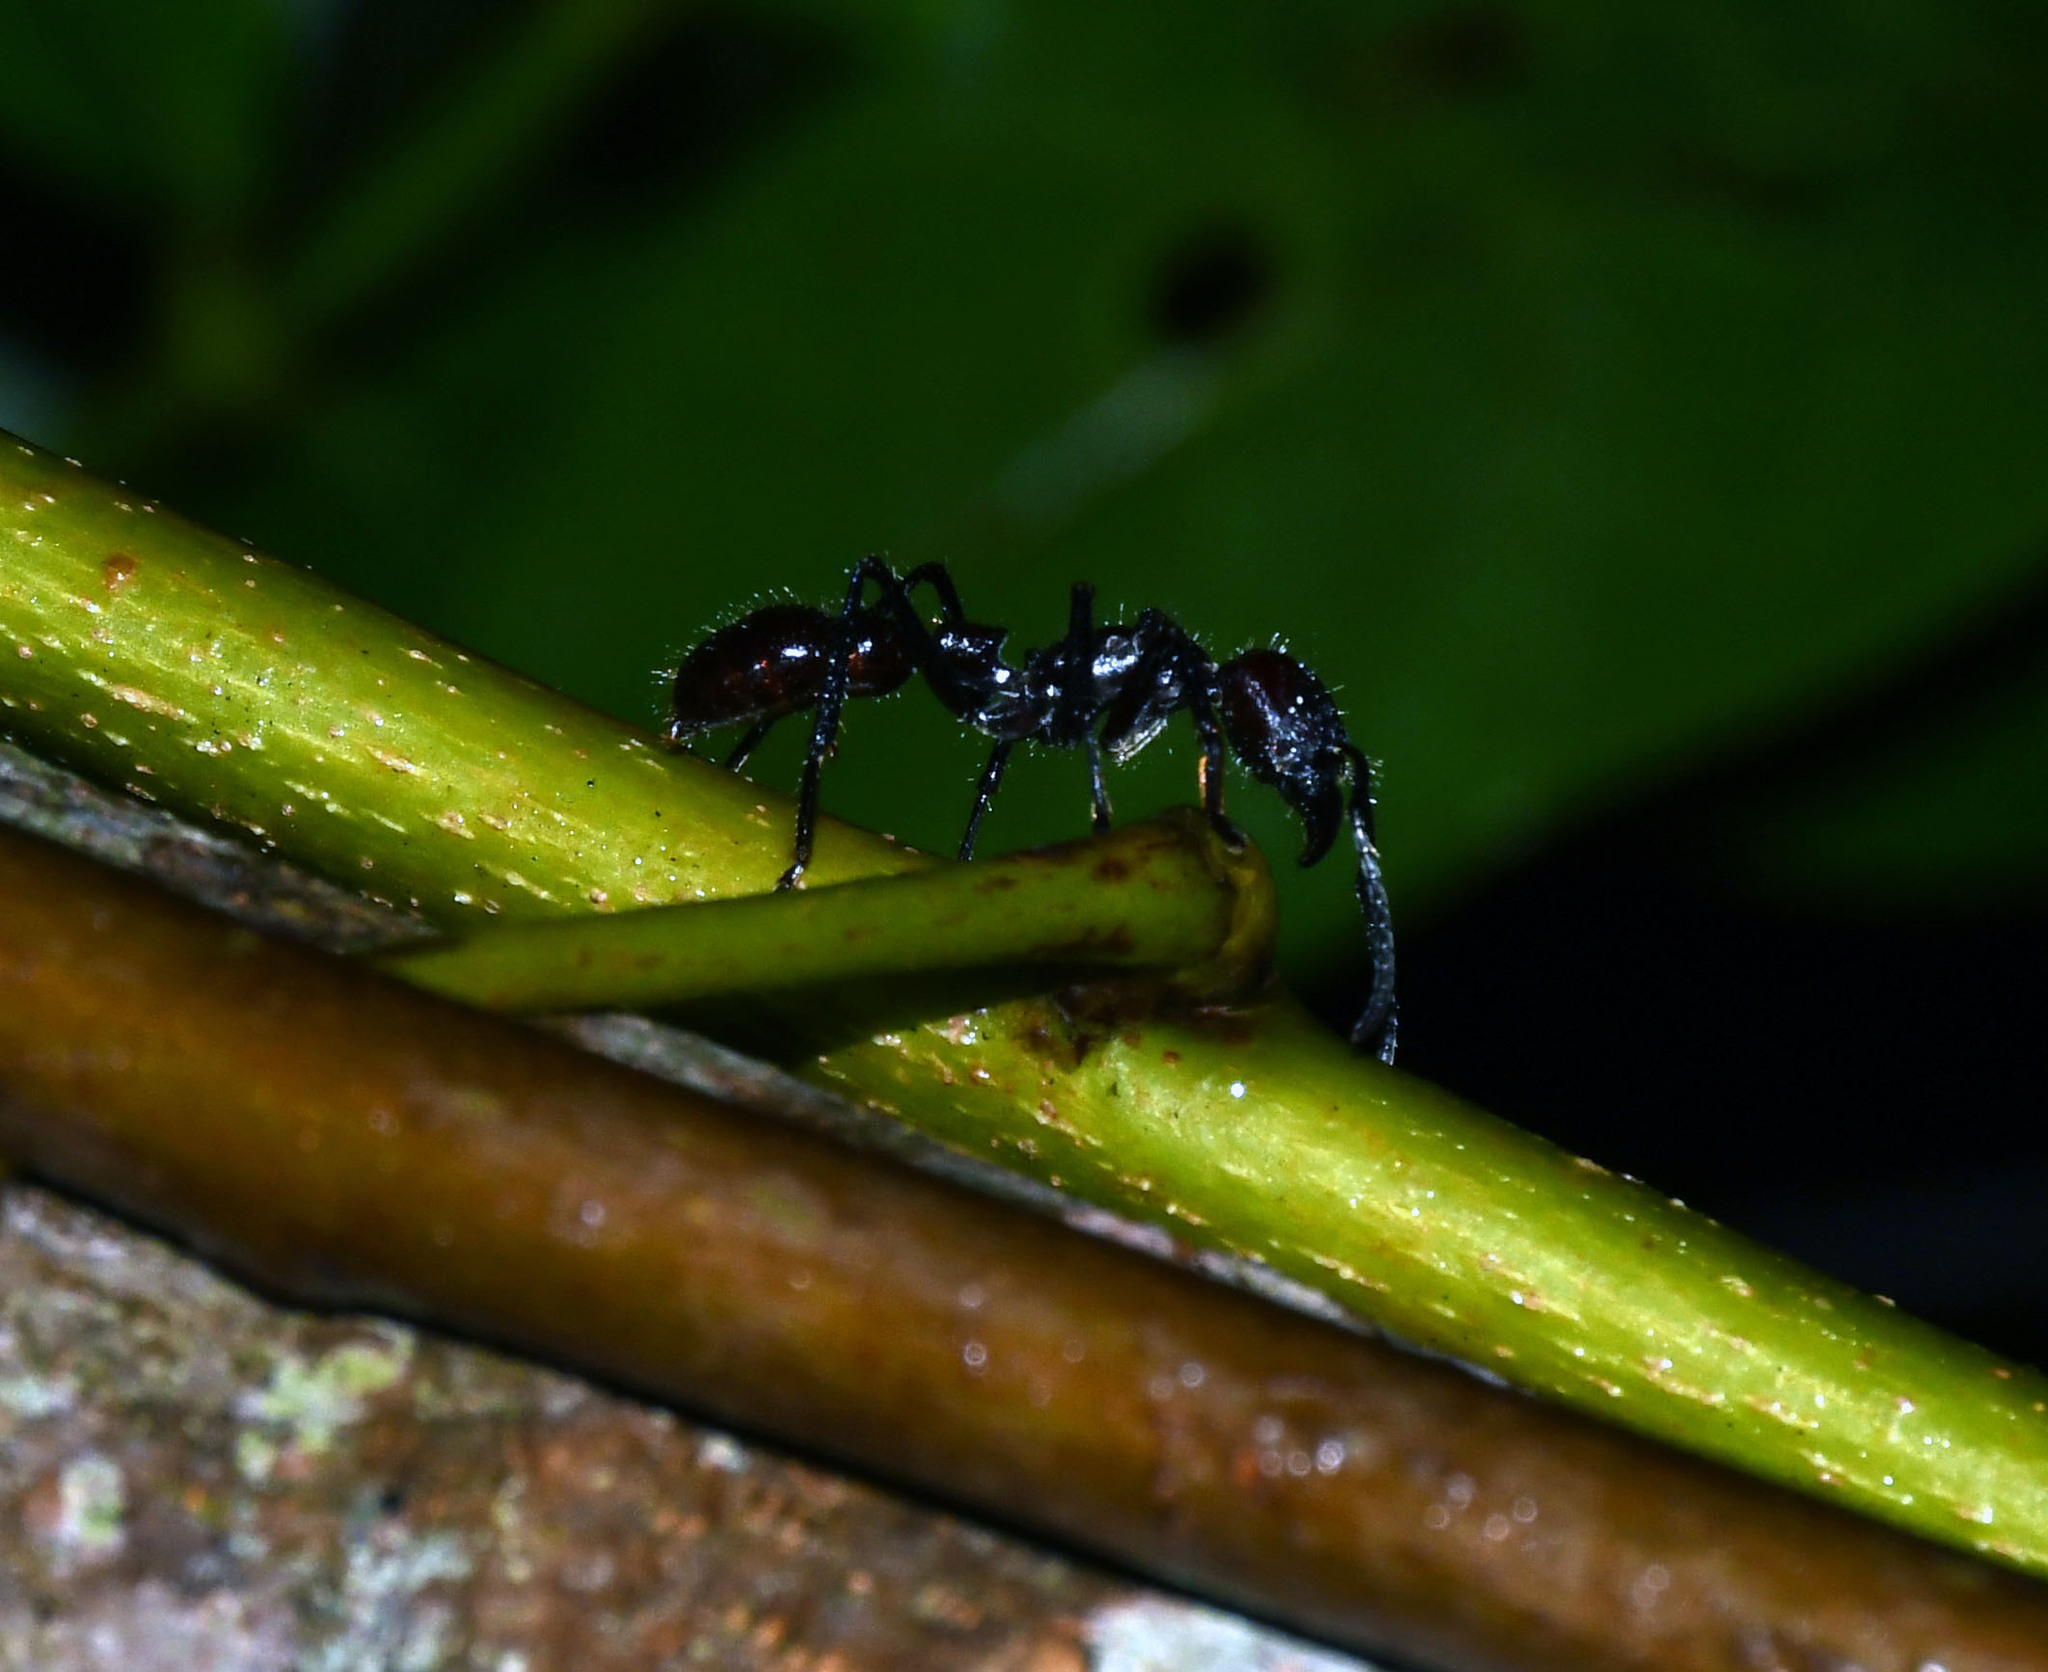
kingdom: Animalia
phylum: Arthropoda
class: Insecta
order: Hymenoptera
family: Formicidae
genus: Paraponera
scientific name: Paraponera clavata
